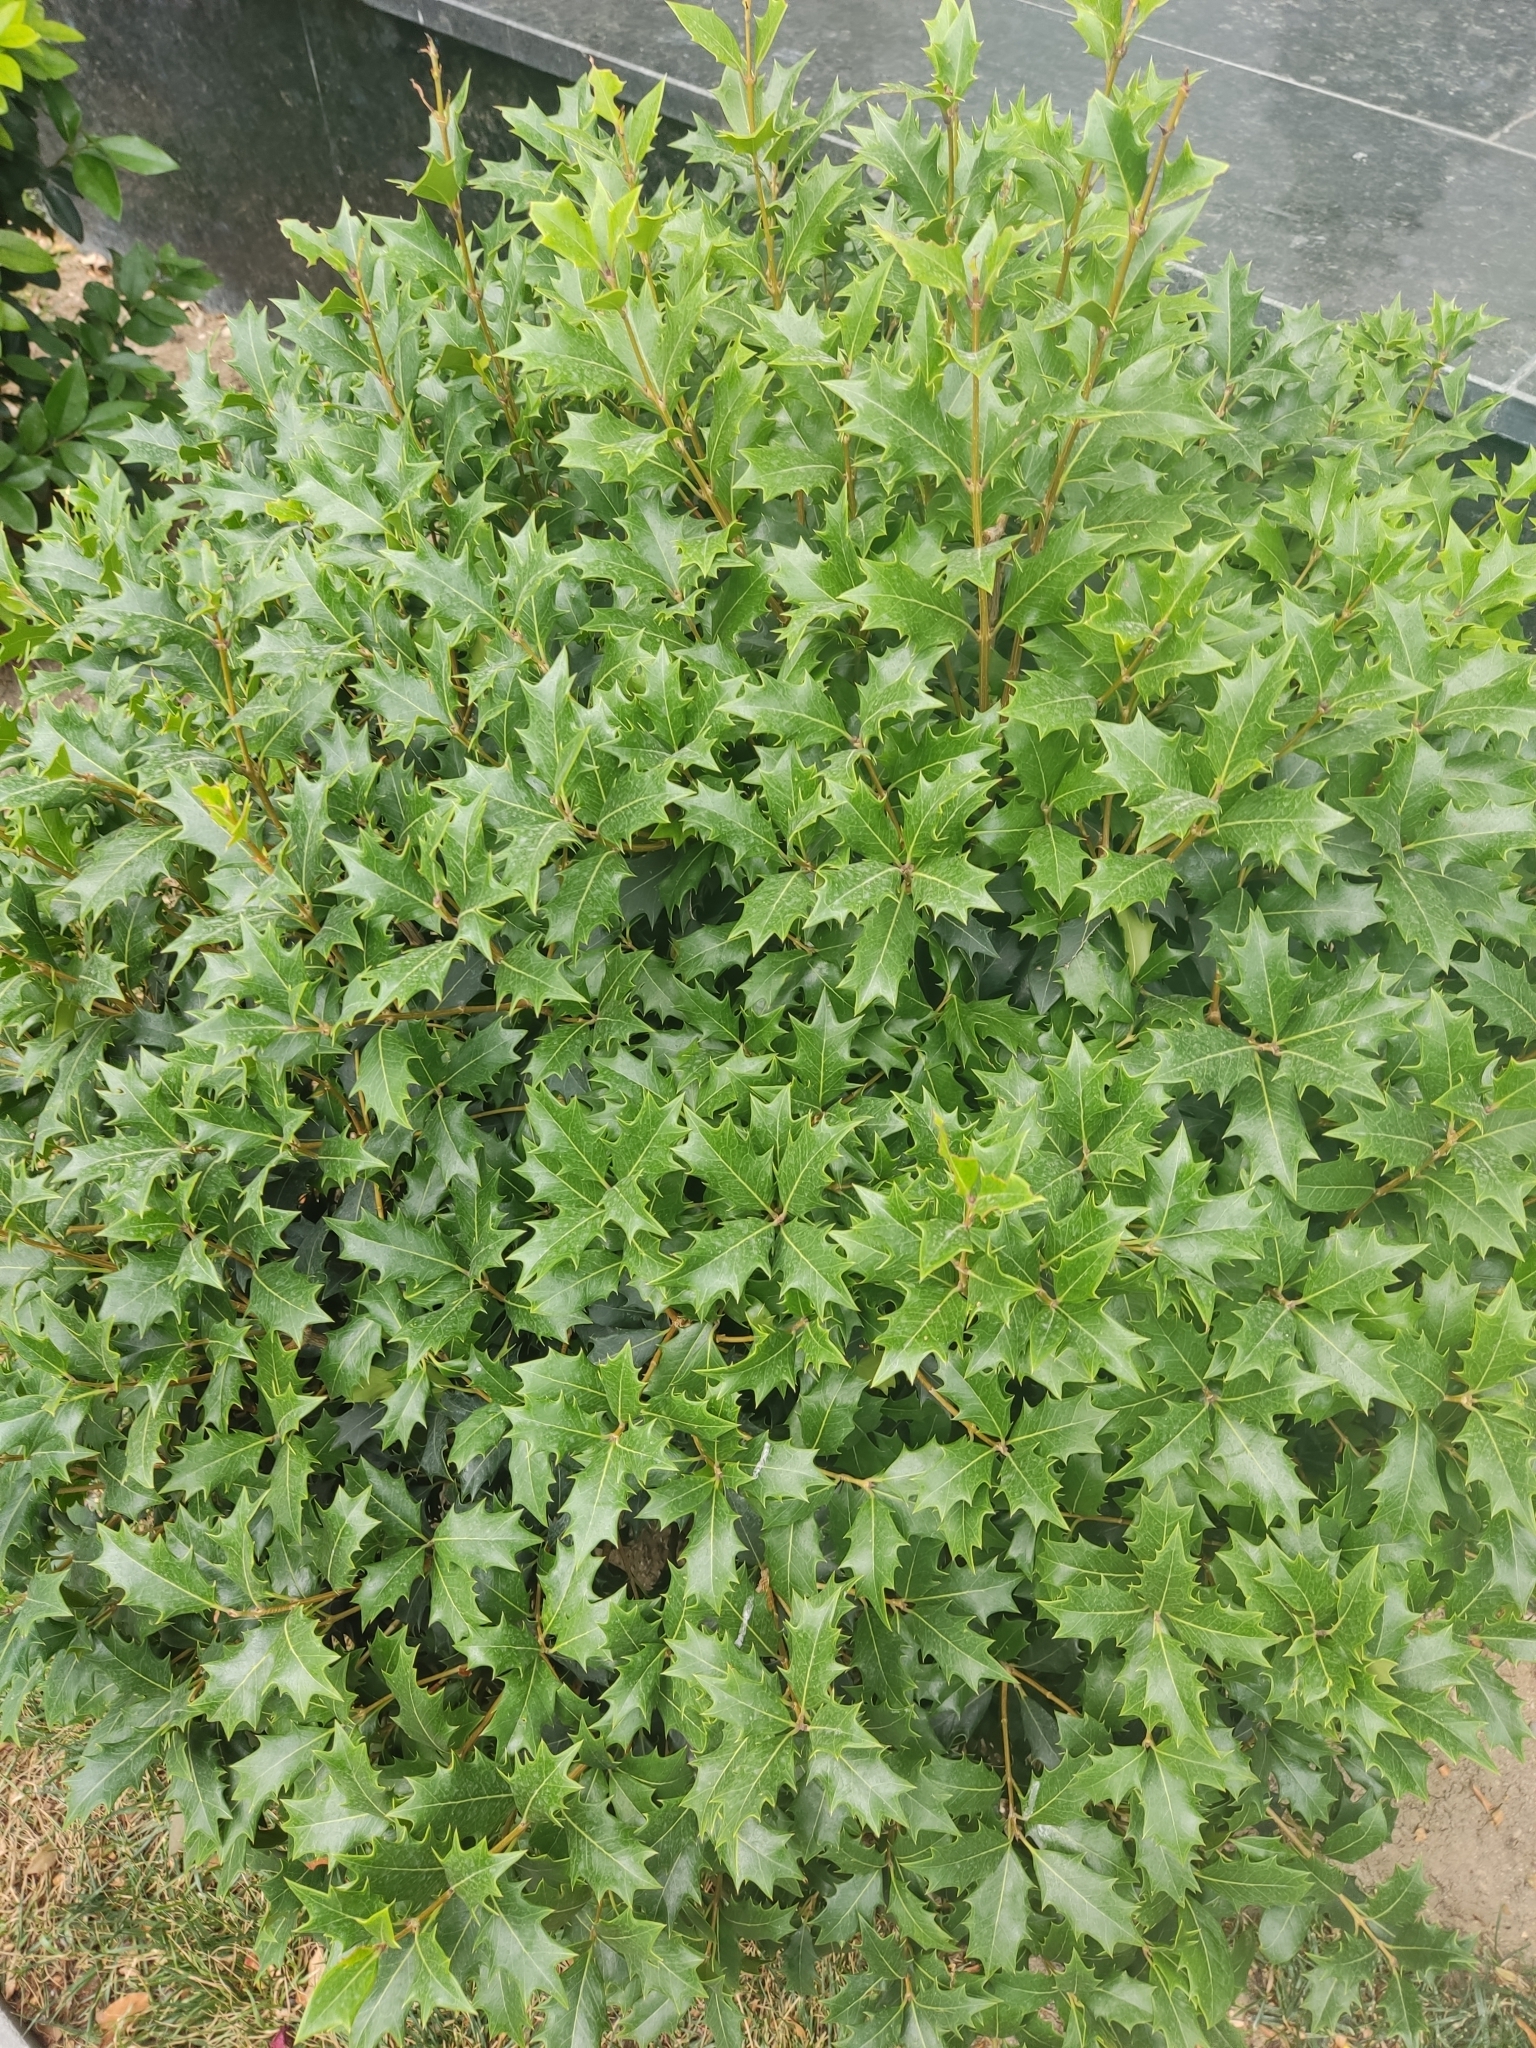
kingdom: Plantae
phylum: Tracheophyta
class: Magnoliopsida
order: Lamiales
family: Oleaceae
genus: Osmanthus
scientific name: Osmanthus heterophyllus
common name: Holly osmanthus
